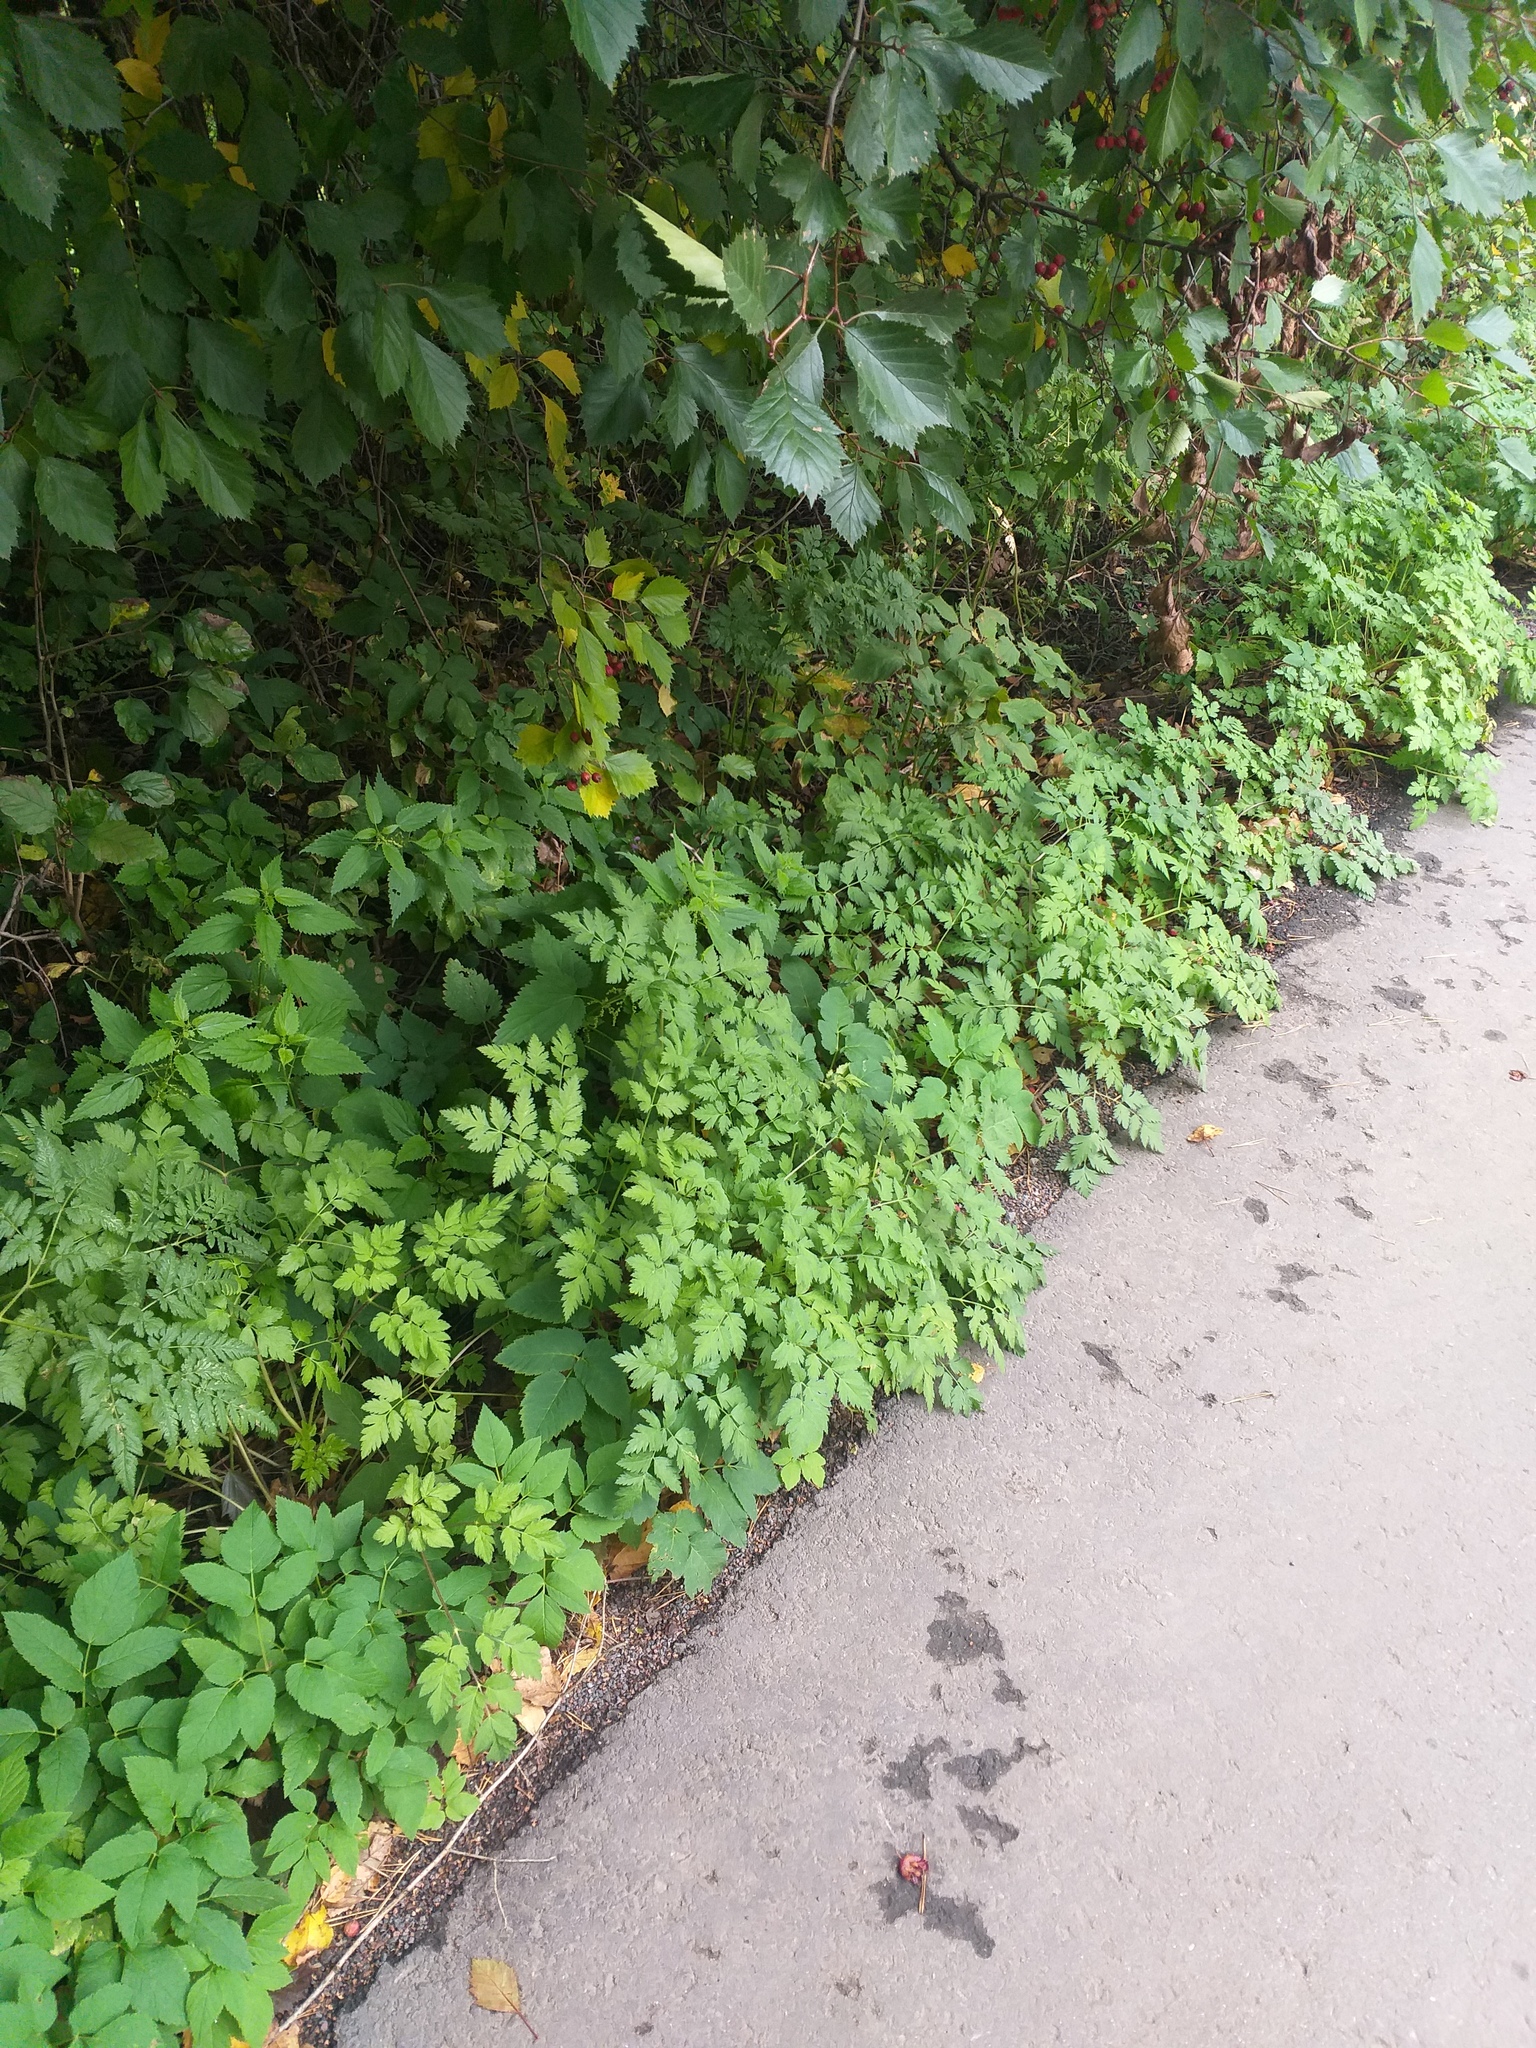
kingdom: Plantae
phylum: Tracheophyta
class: Magnoliopsida
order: Apiales
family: Apiaceae
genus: Chaerophyllum
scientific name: Chaerophyllum aureum
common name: Golden chervil
